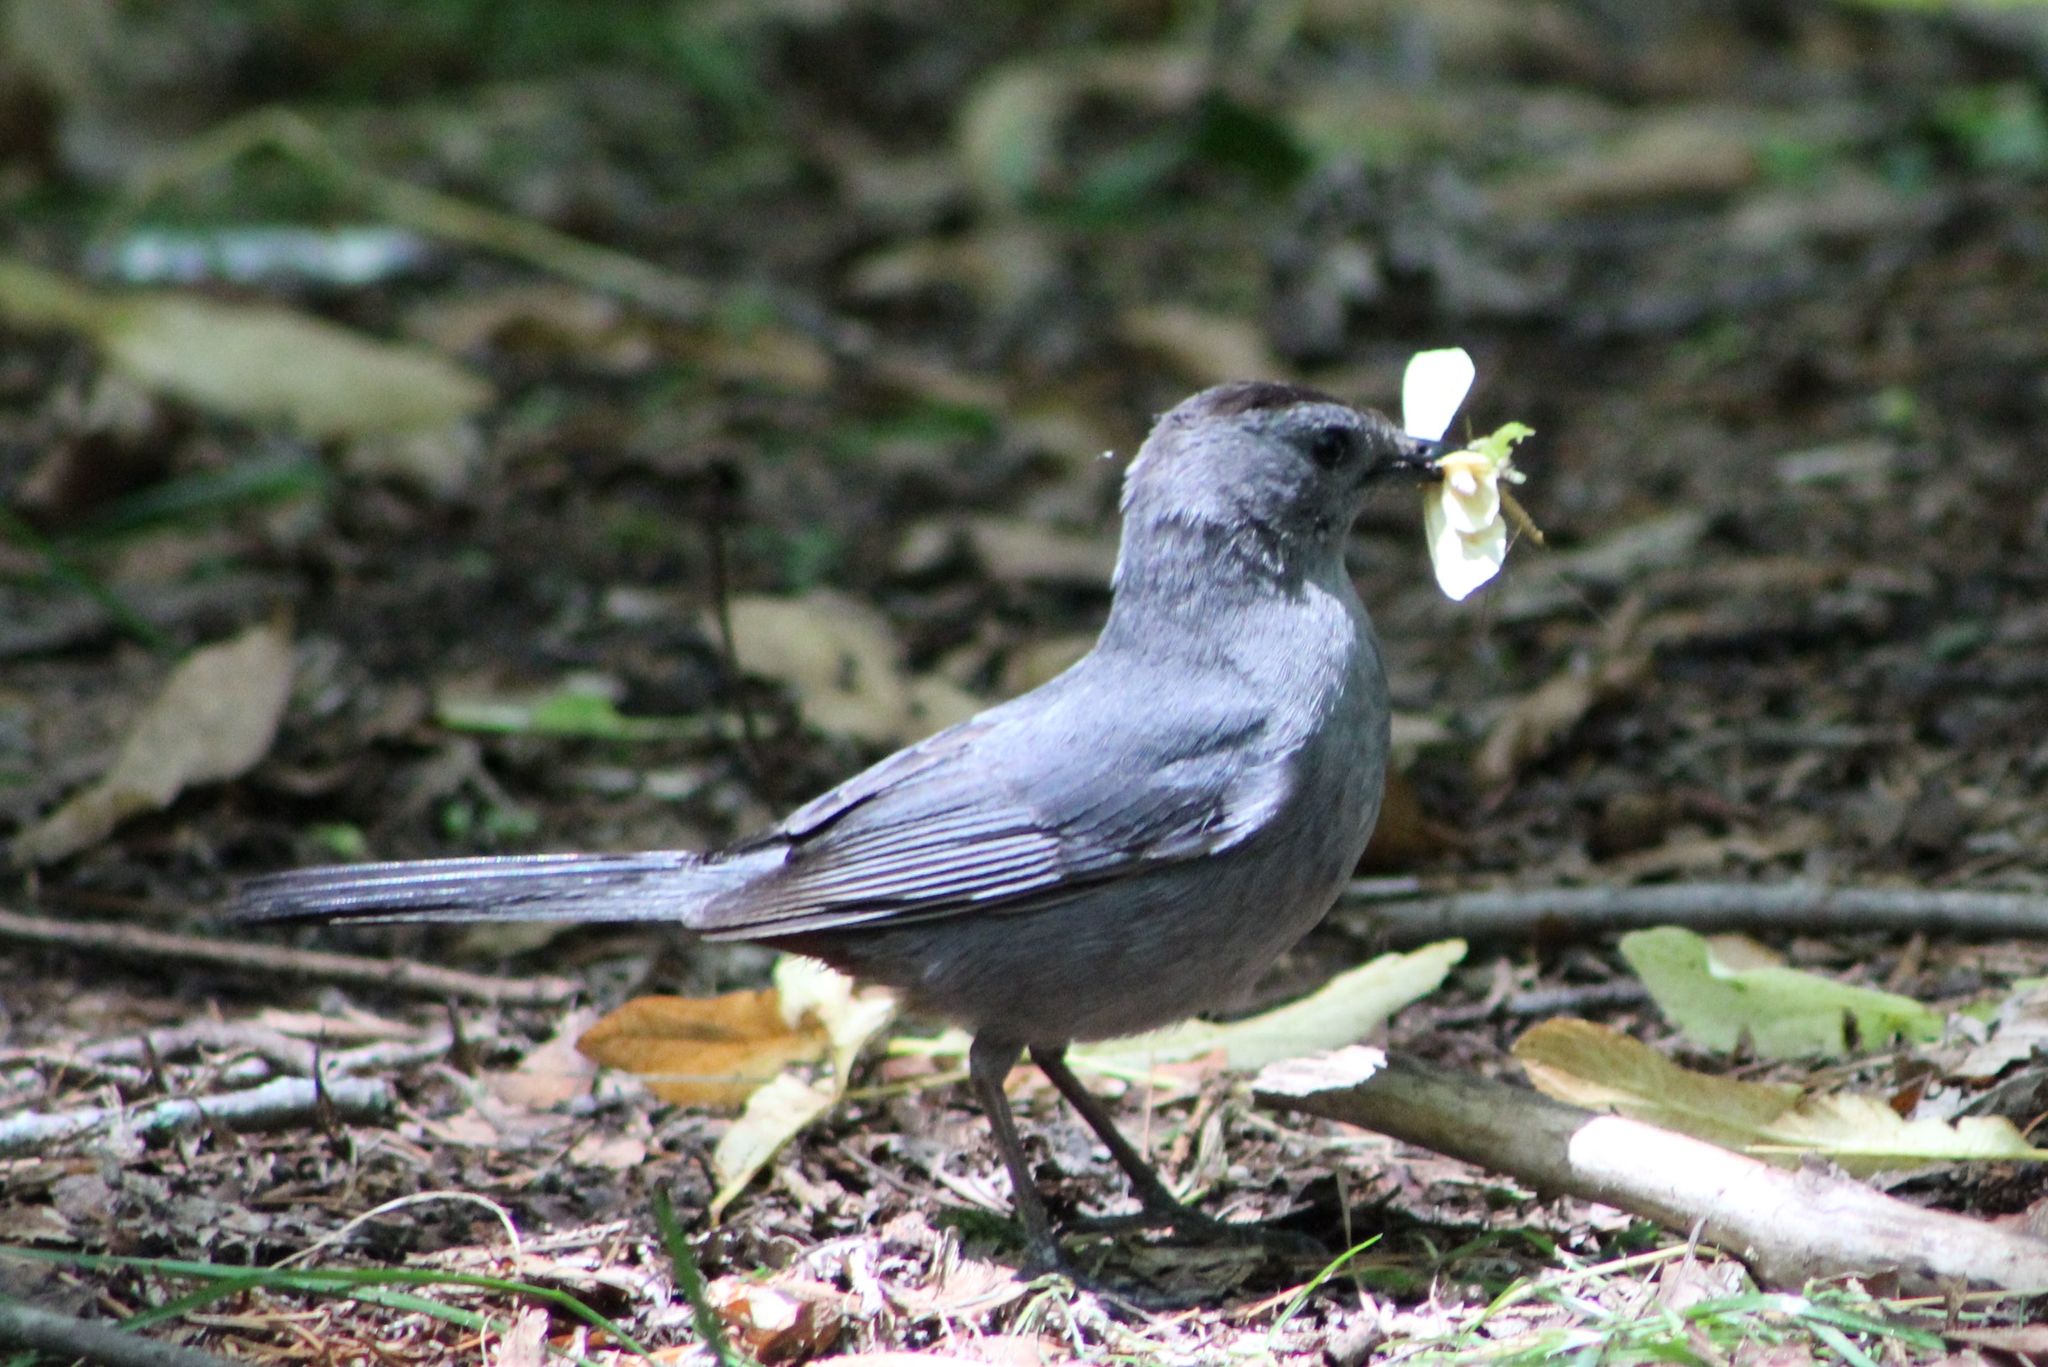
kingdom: Animalia
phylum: Chordata
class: Aves
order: Passeriformes
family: Mimidae
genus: Dumetella
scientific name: Dumetella carolinensis
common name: Gray catbird
